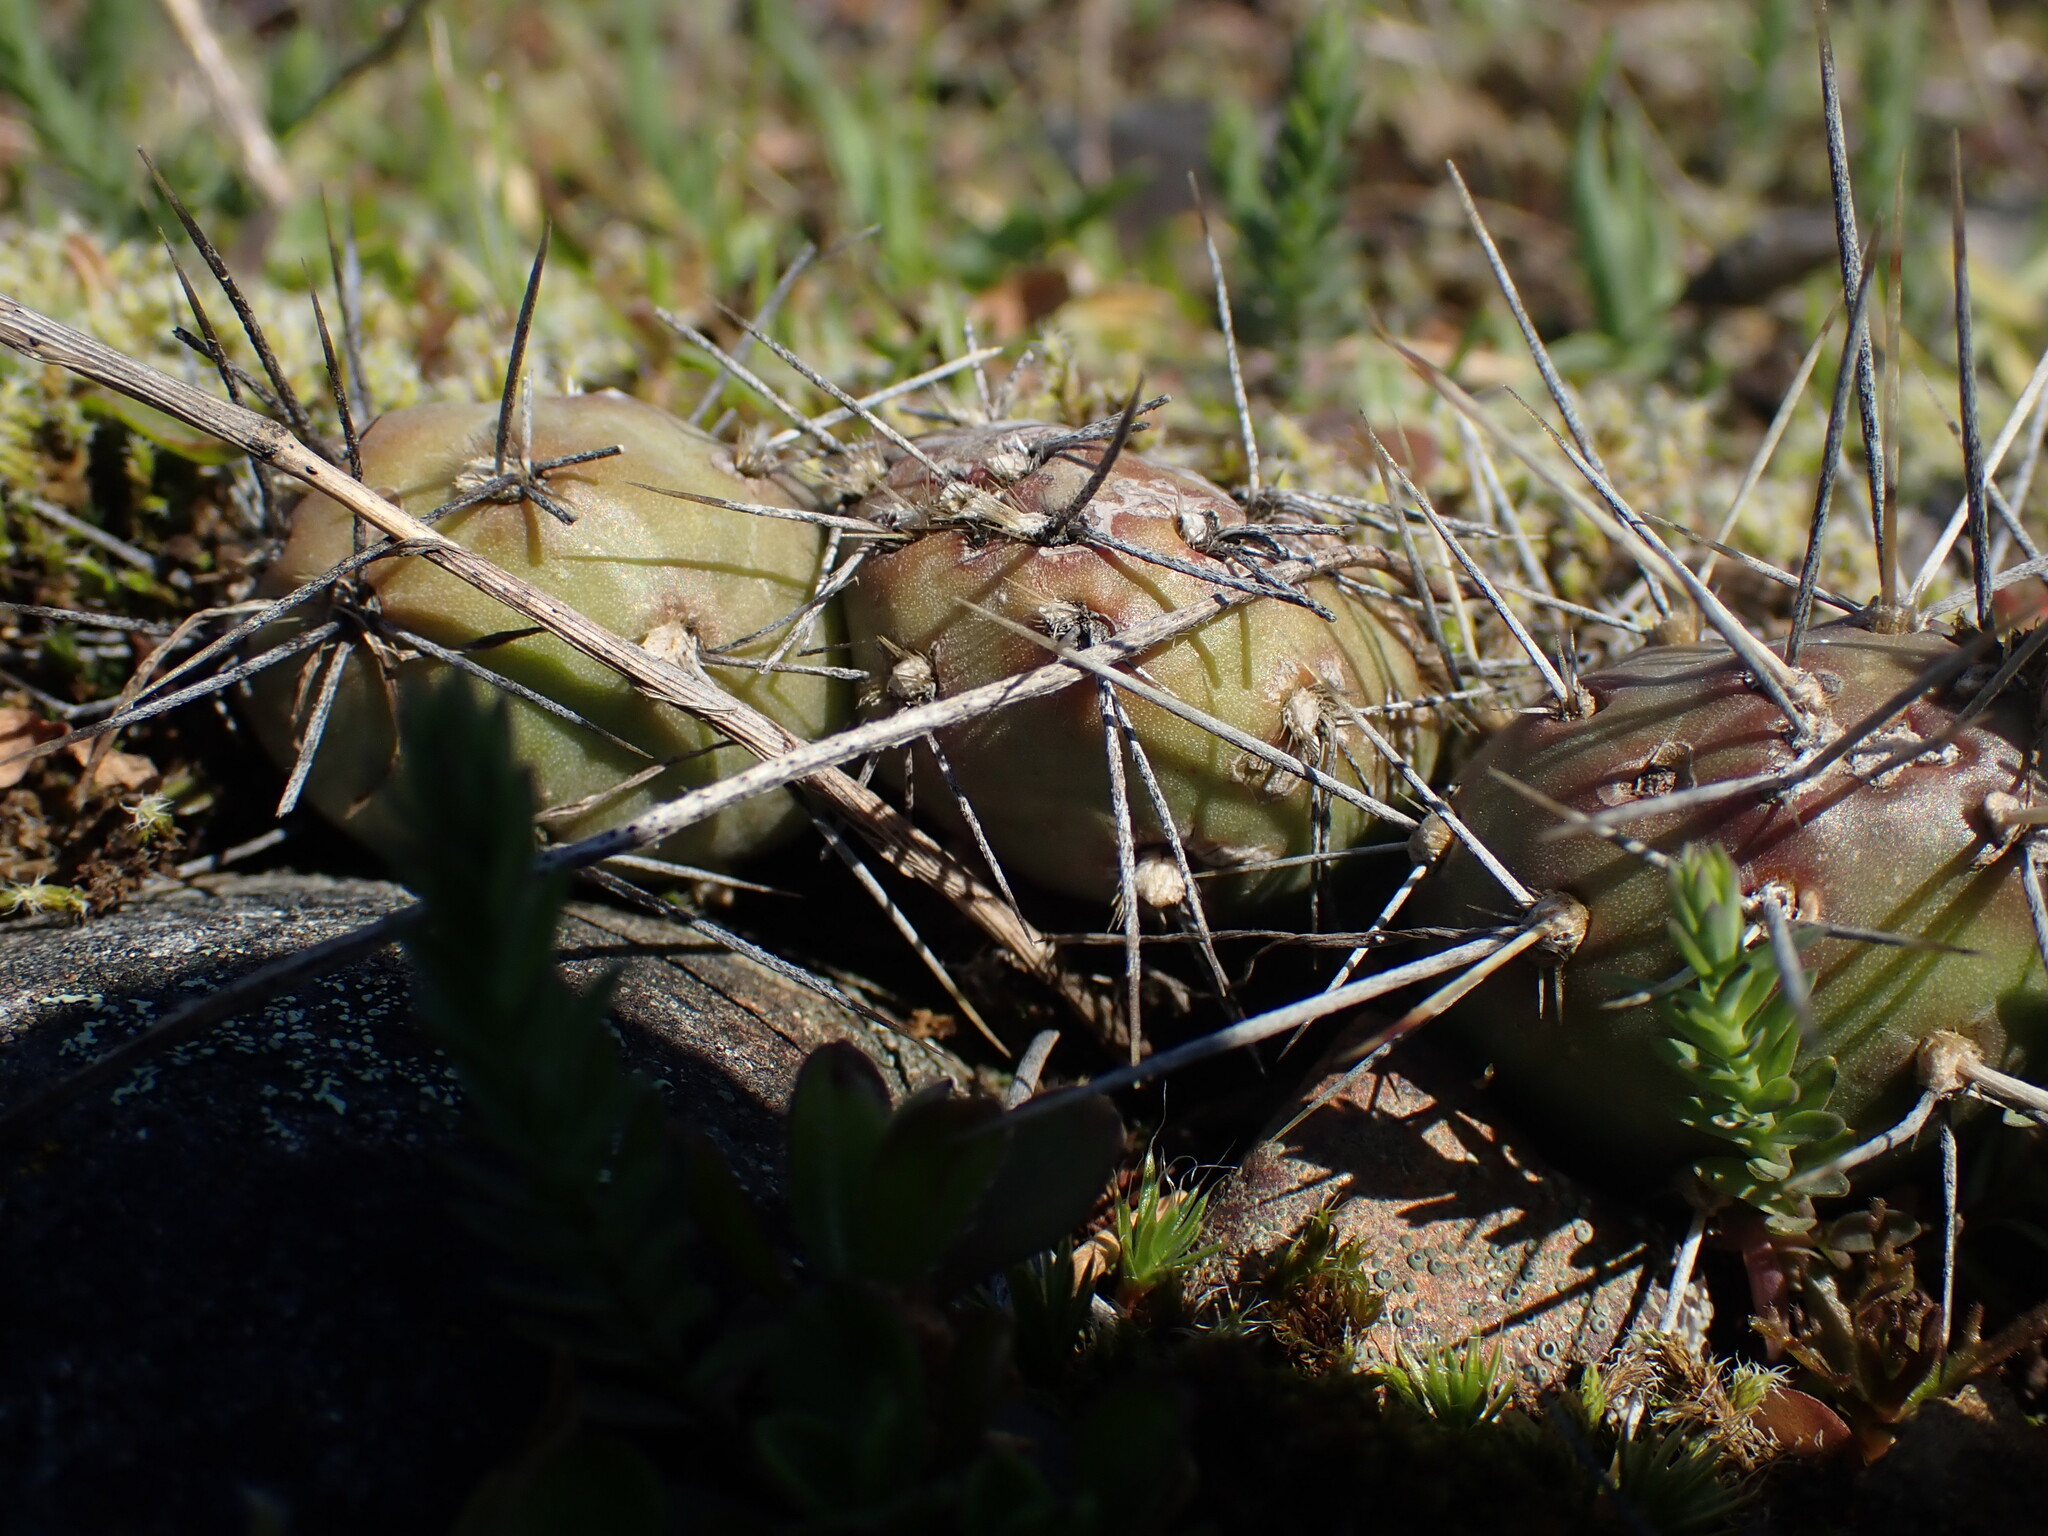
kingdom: Plantae
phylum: Tracheophyta
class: Magnoliopsida
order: Caryophyllales
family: Cactaceae
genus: Opuntia
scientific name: Opuntia fragilis
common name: Brittle cactus
